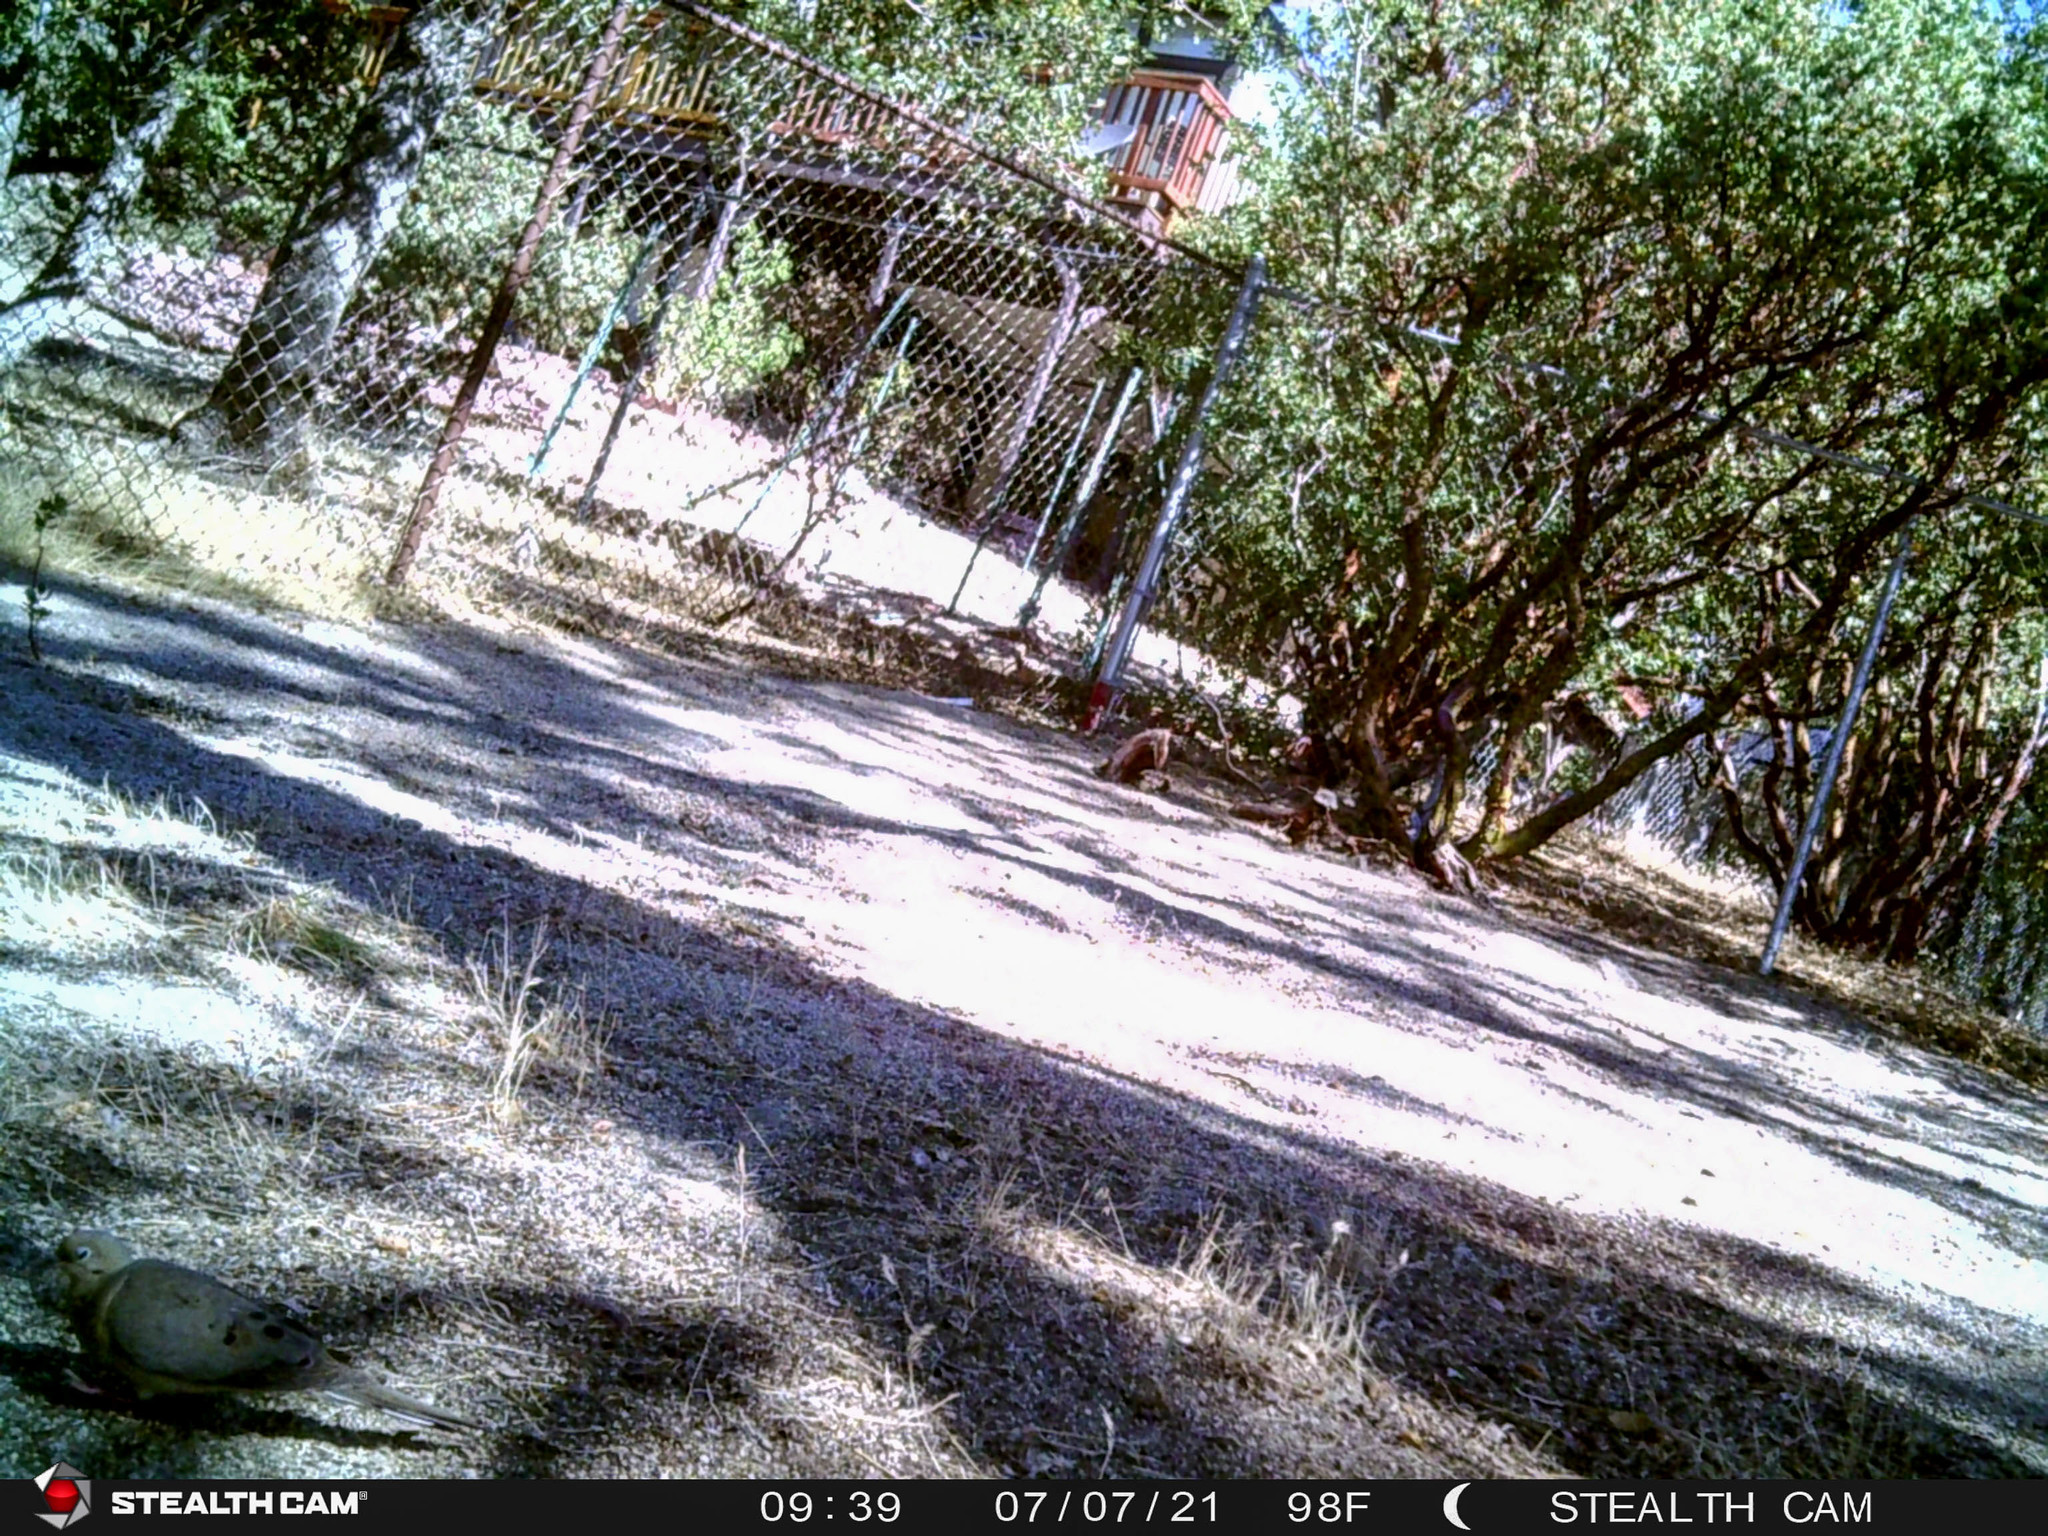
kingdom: Animalia
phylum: Chordata
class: Aves
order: Columbiformes
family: Columbidae
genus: Zenaida
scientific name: Zenaida macroura
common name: Mourning dove
